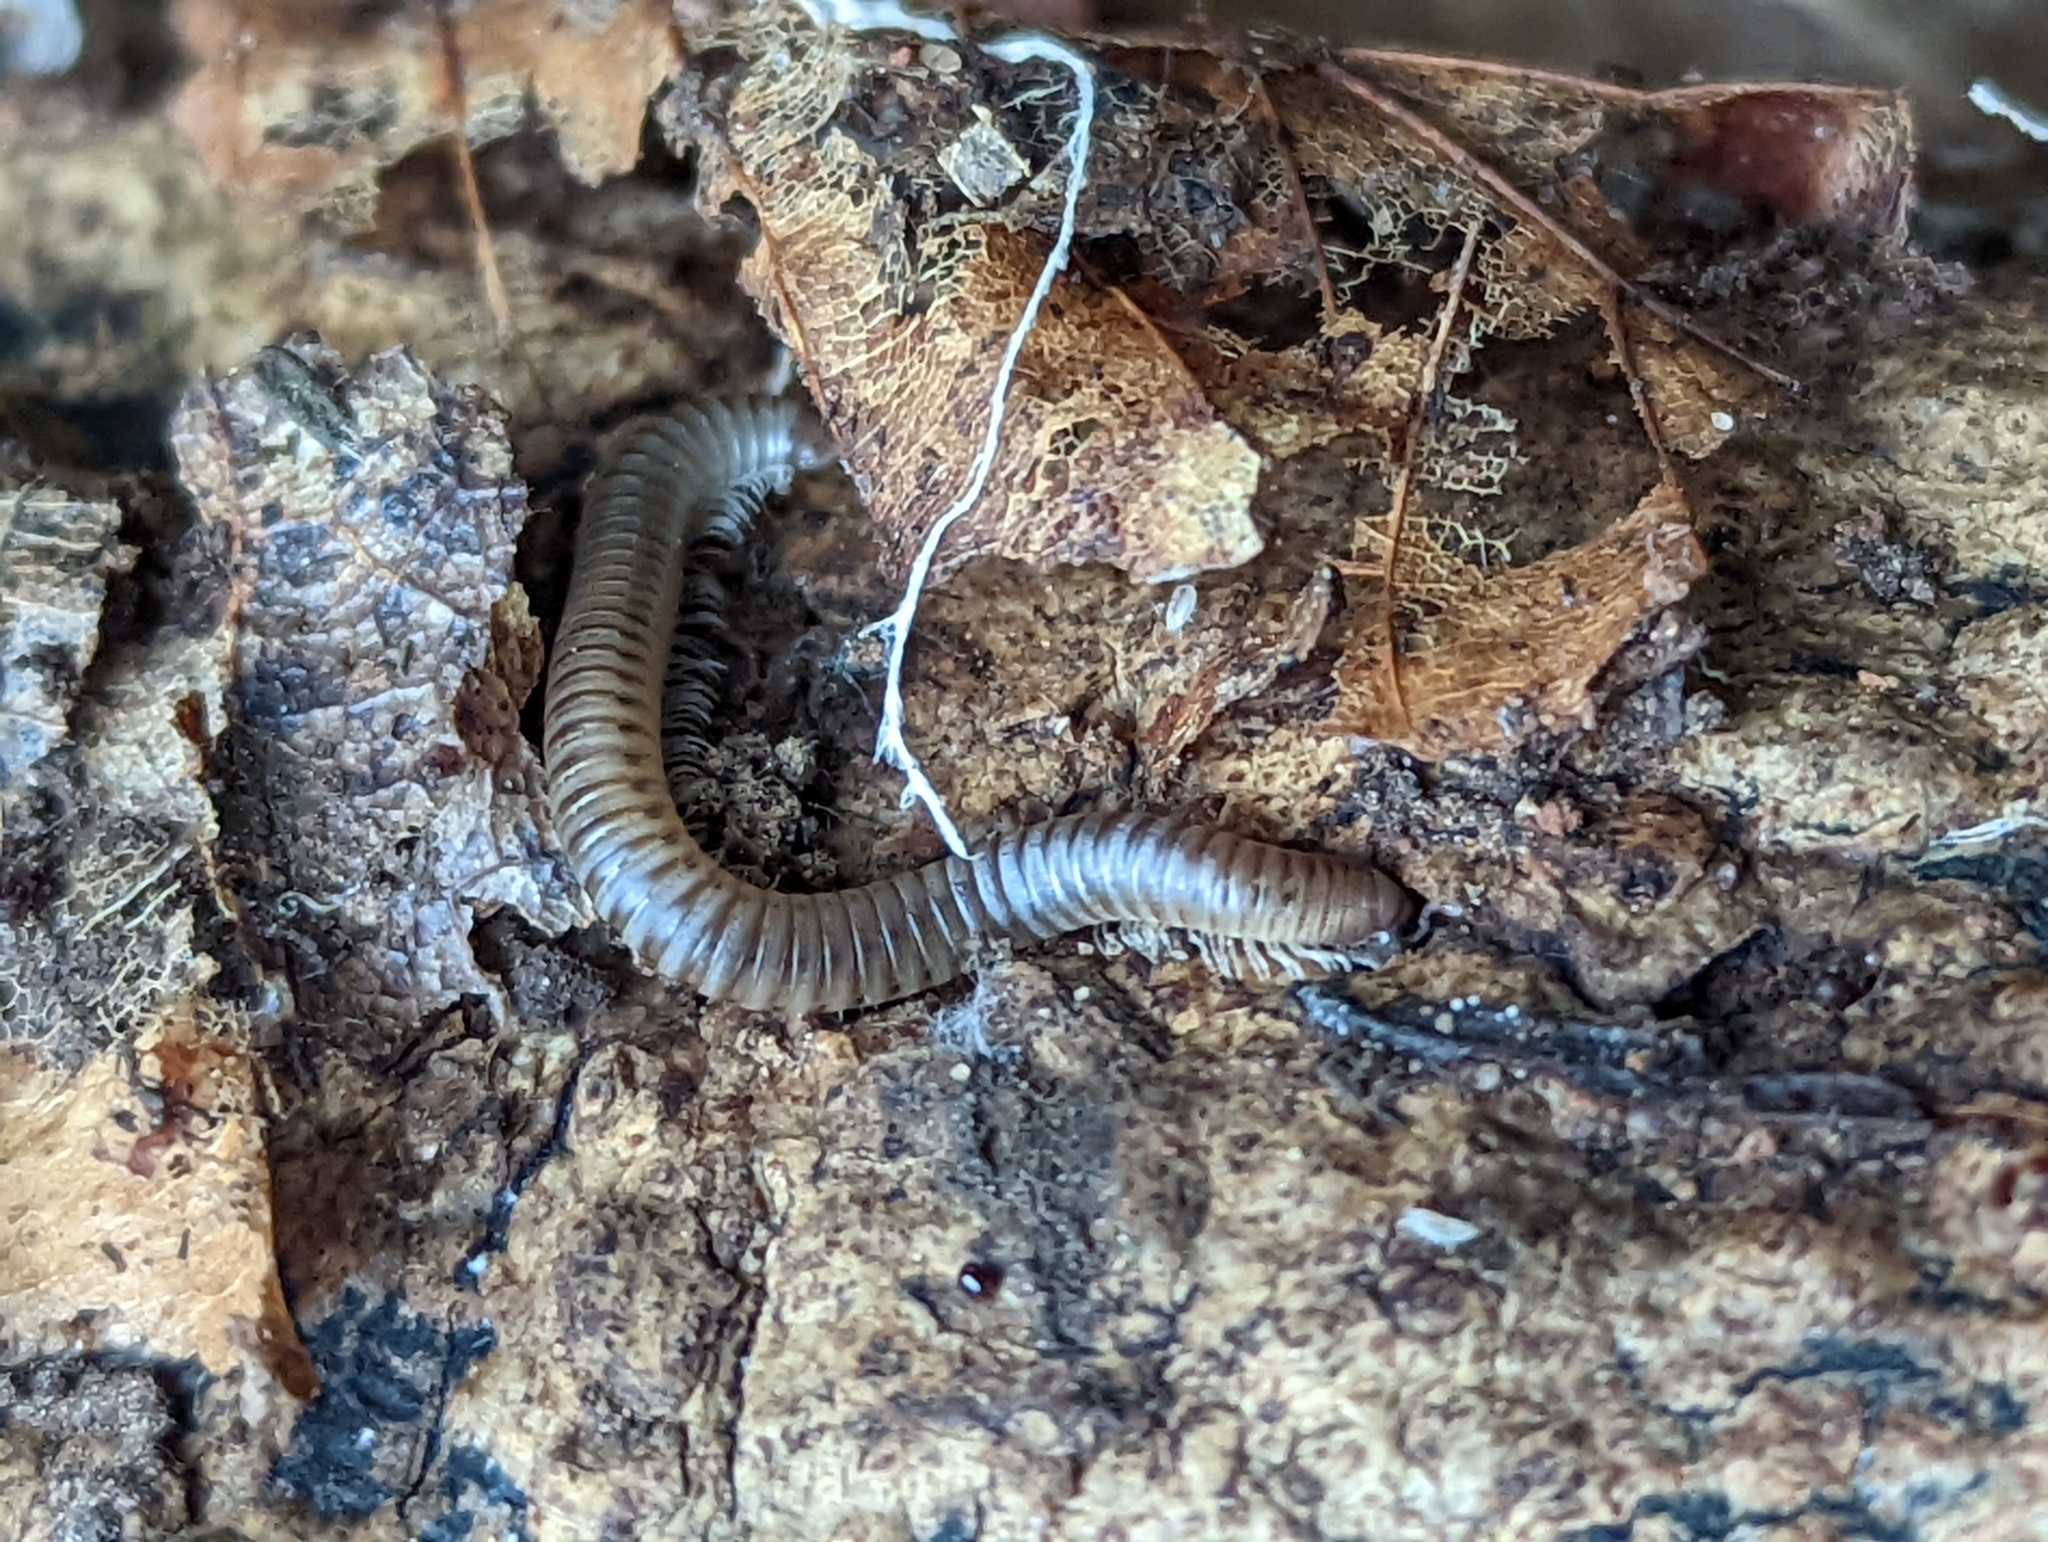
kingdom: Animalia
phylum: Arthropoda
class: Diplopoda
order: Julida
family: Julidae
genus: Cylindroiulus
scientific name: Cylindroiulus punctatus
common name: Blunt-tailed millipede
